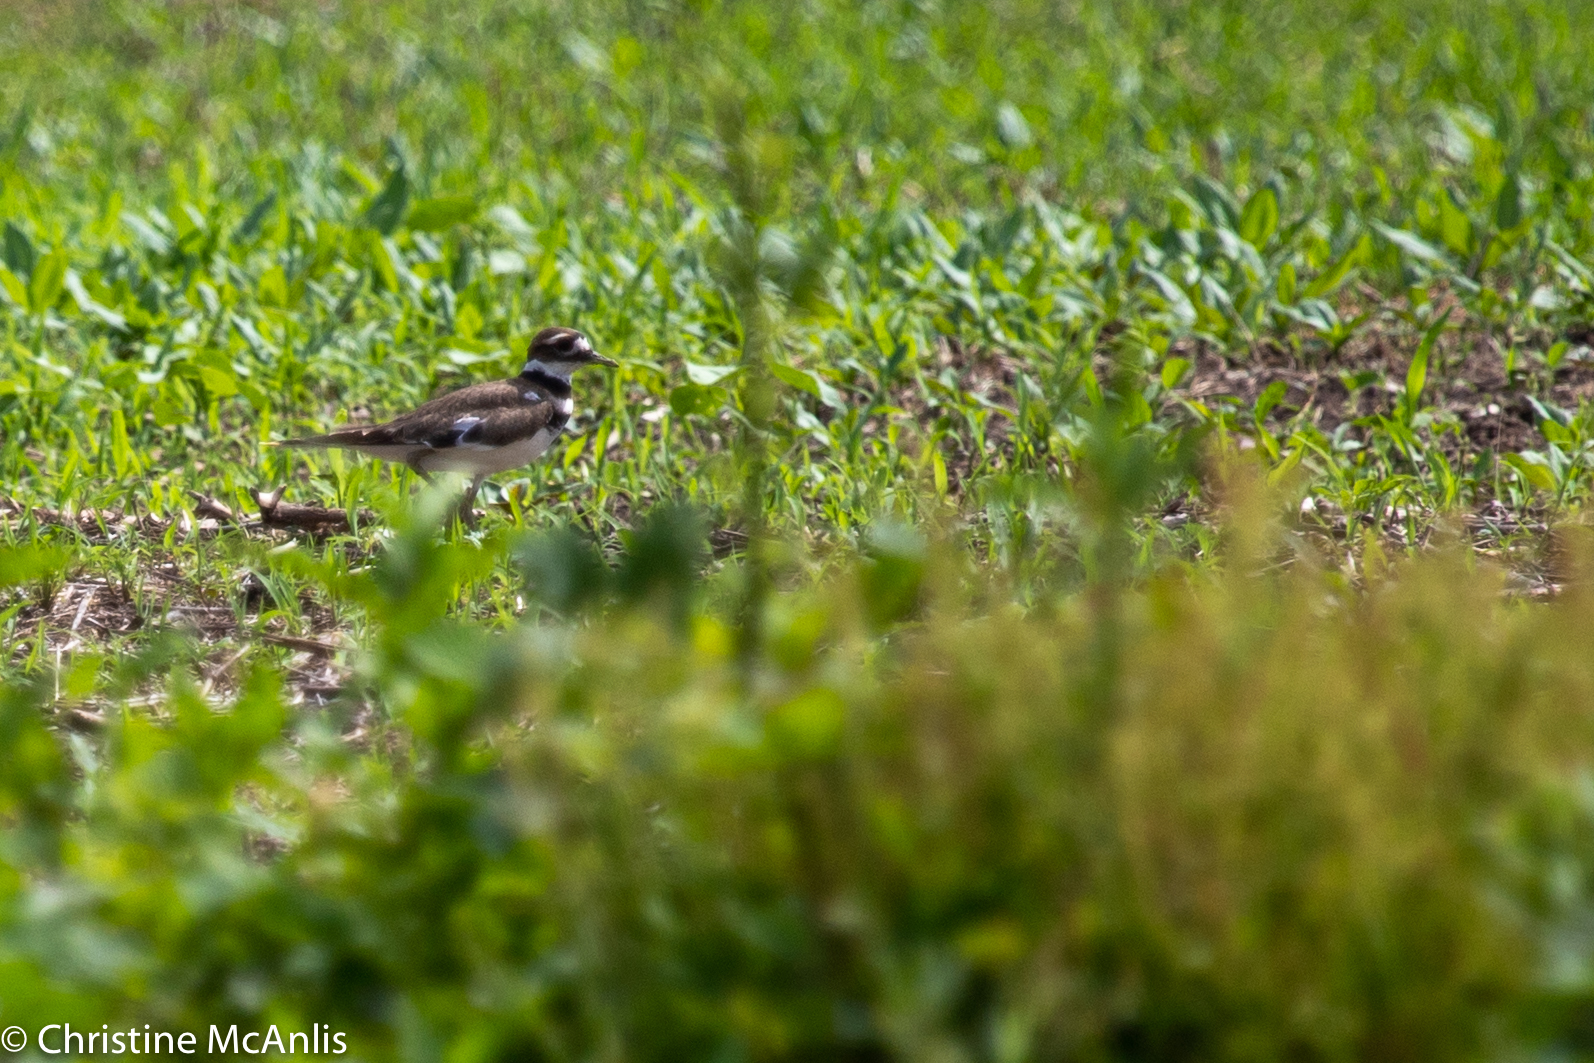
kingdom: Animalia
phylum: Chordata
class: Aves
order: Charadriiformes
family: Charadriidae
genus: Charadrius
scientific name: Charadrius vociferus
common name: Killdeer
